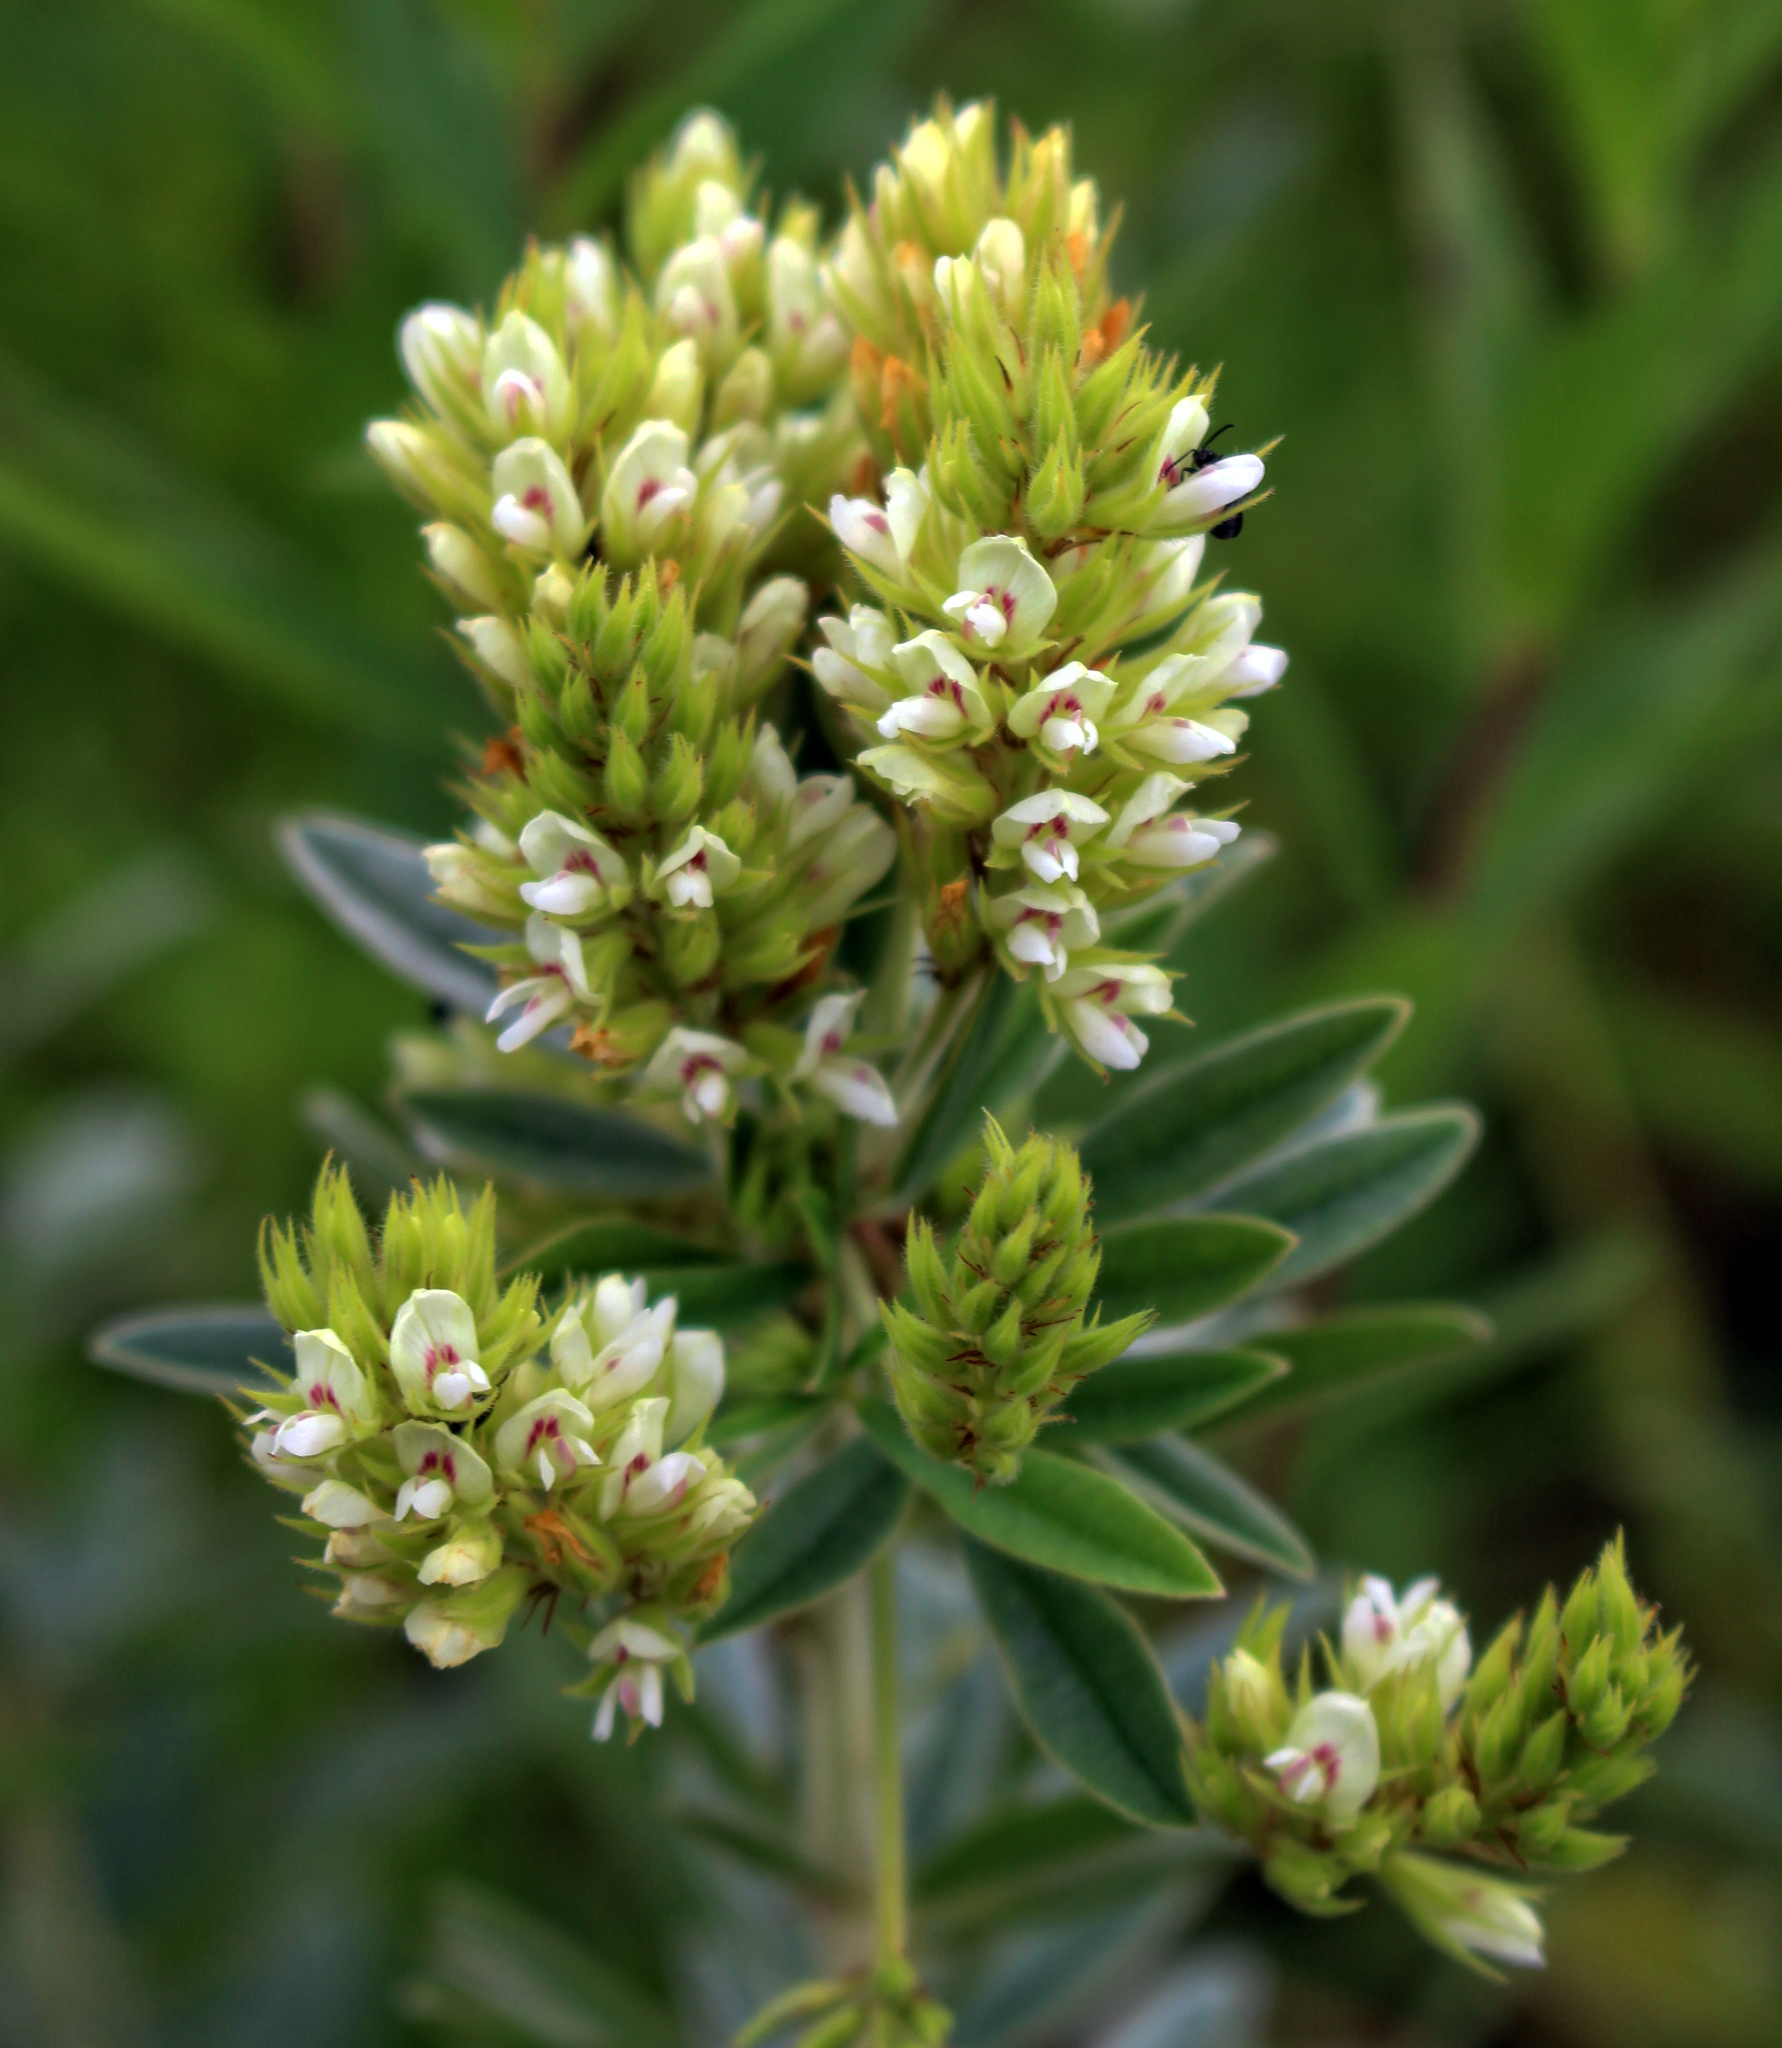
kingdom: Plantae
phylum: Tracheophyta
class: Magnoliopsida
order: Fabales
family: Fabaceae
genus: Lespedeza
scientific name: Lespedeza capitata
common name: Dusty clover
